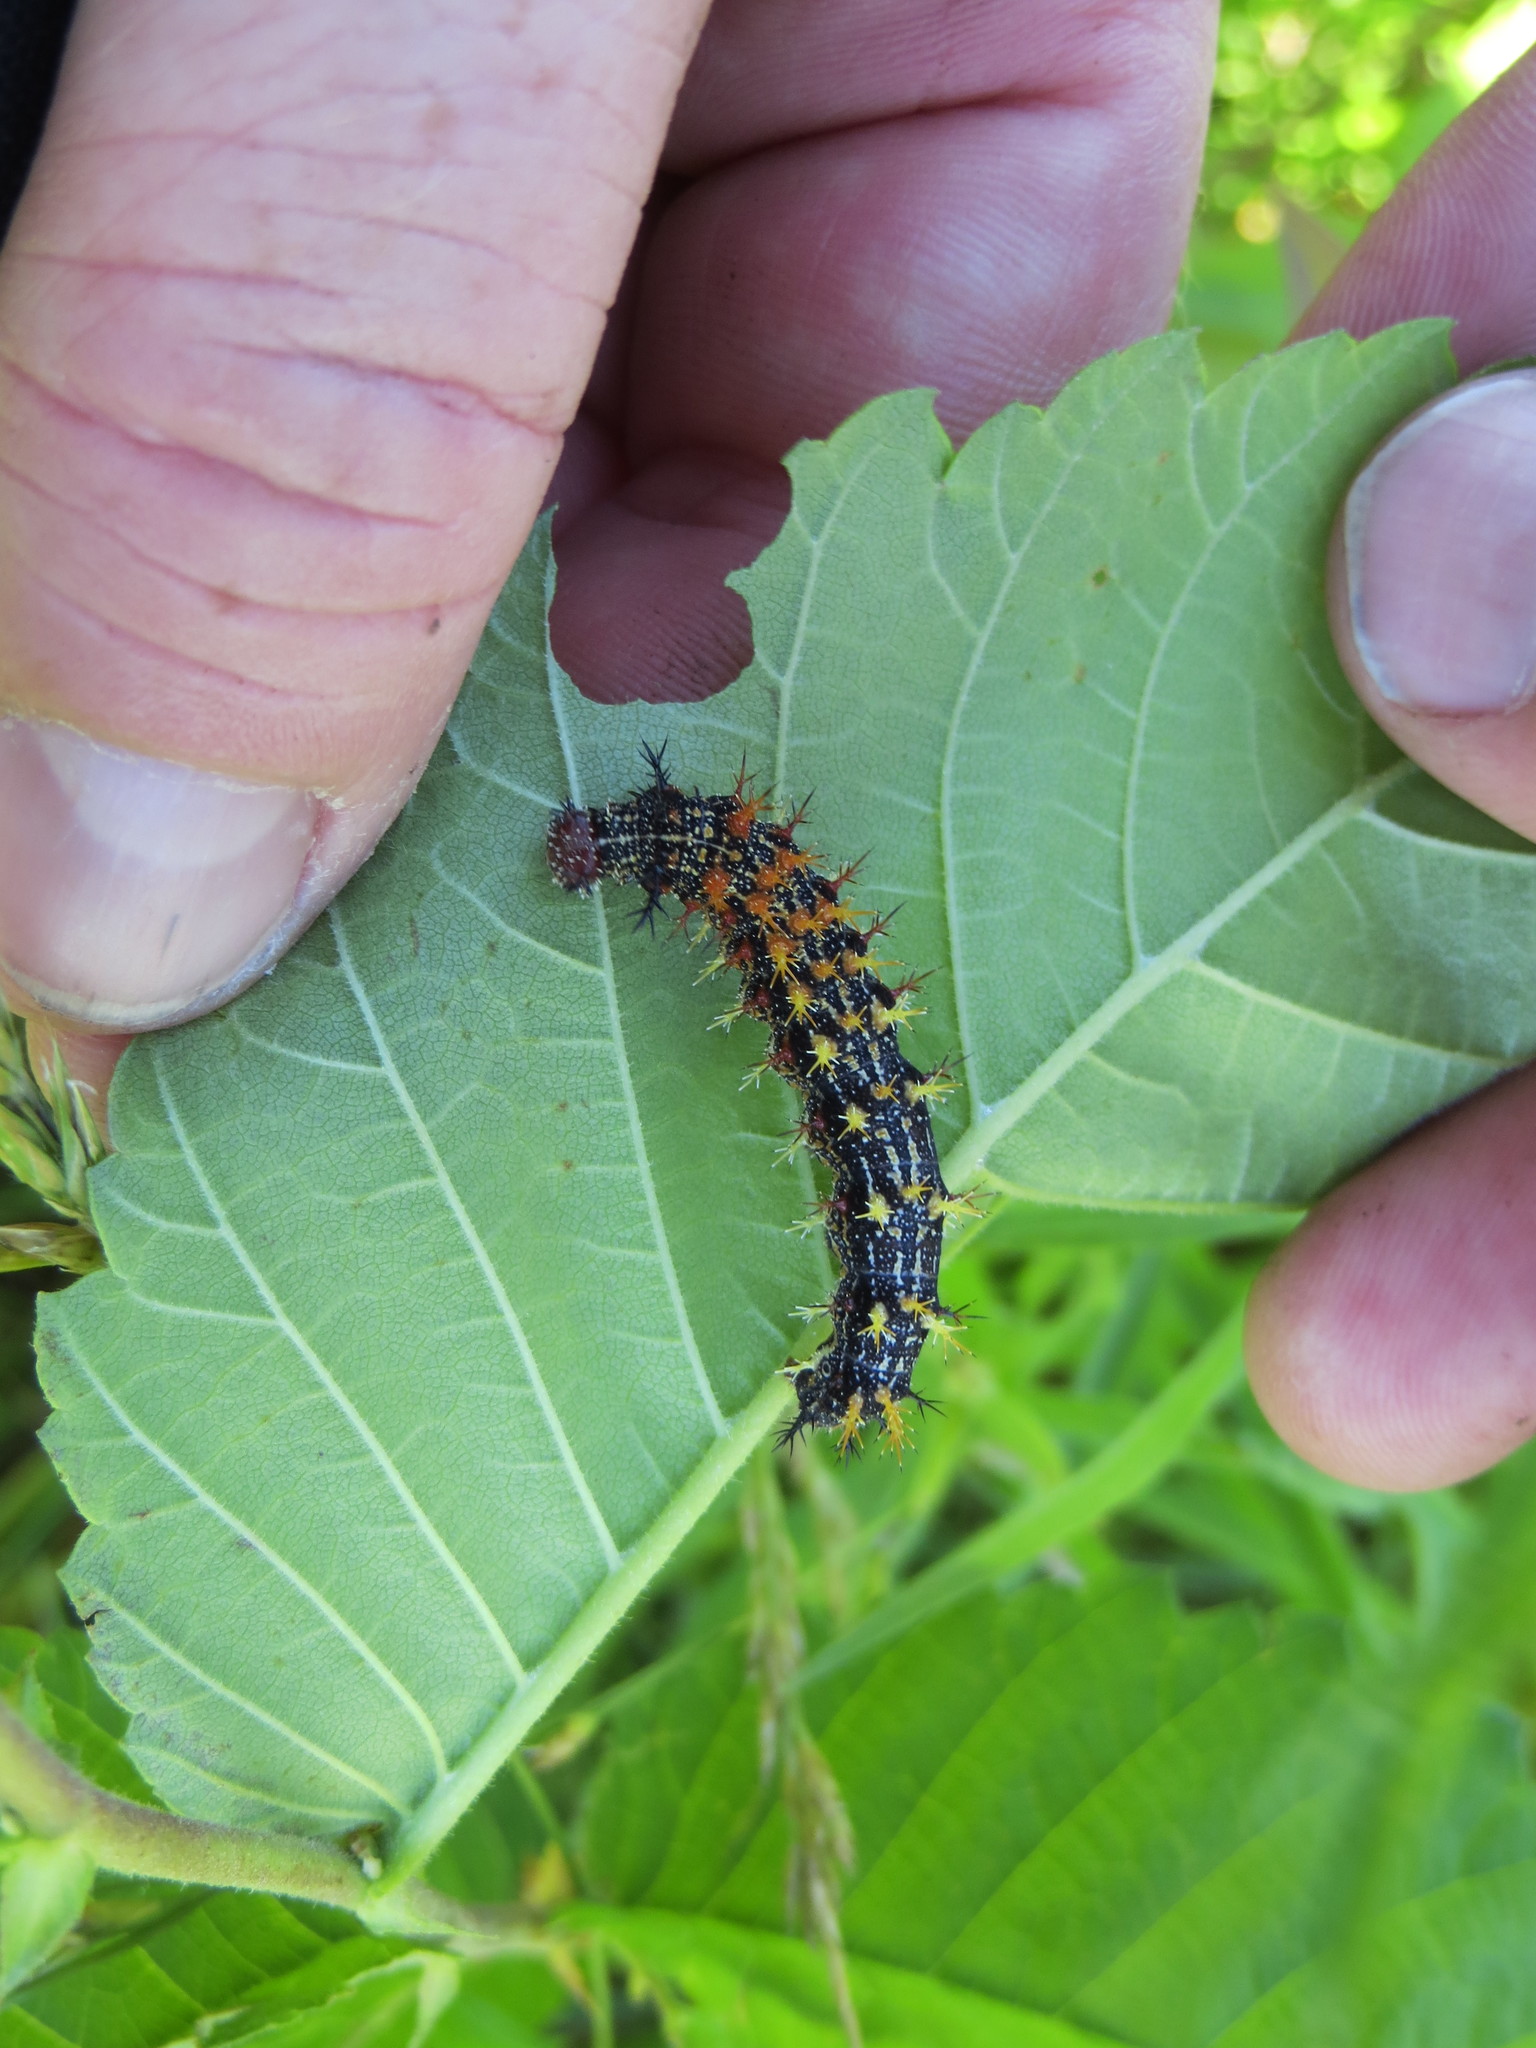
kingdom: Animalia
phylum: Arthropoda
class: Insecta
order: Lepidoptera
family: Nymphalidae
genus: Polygonia
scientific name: Polygonia interrogationis
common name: Question mark
